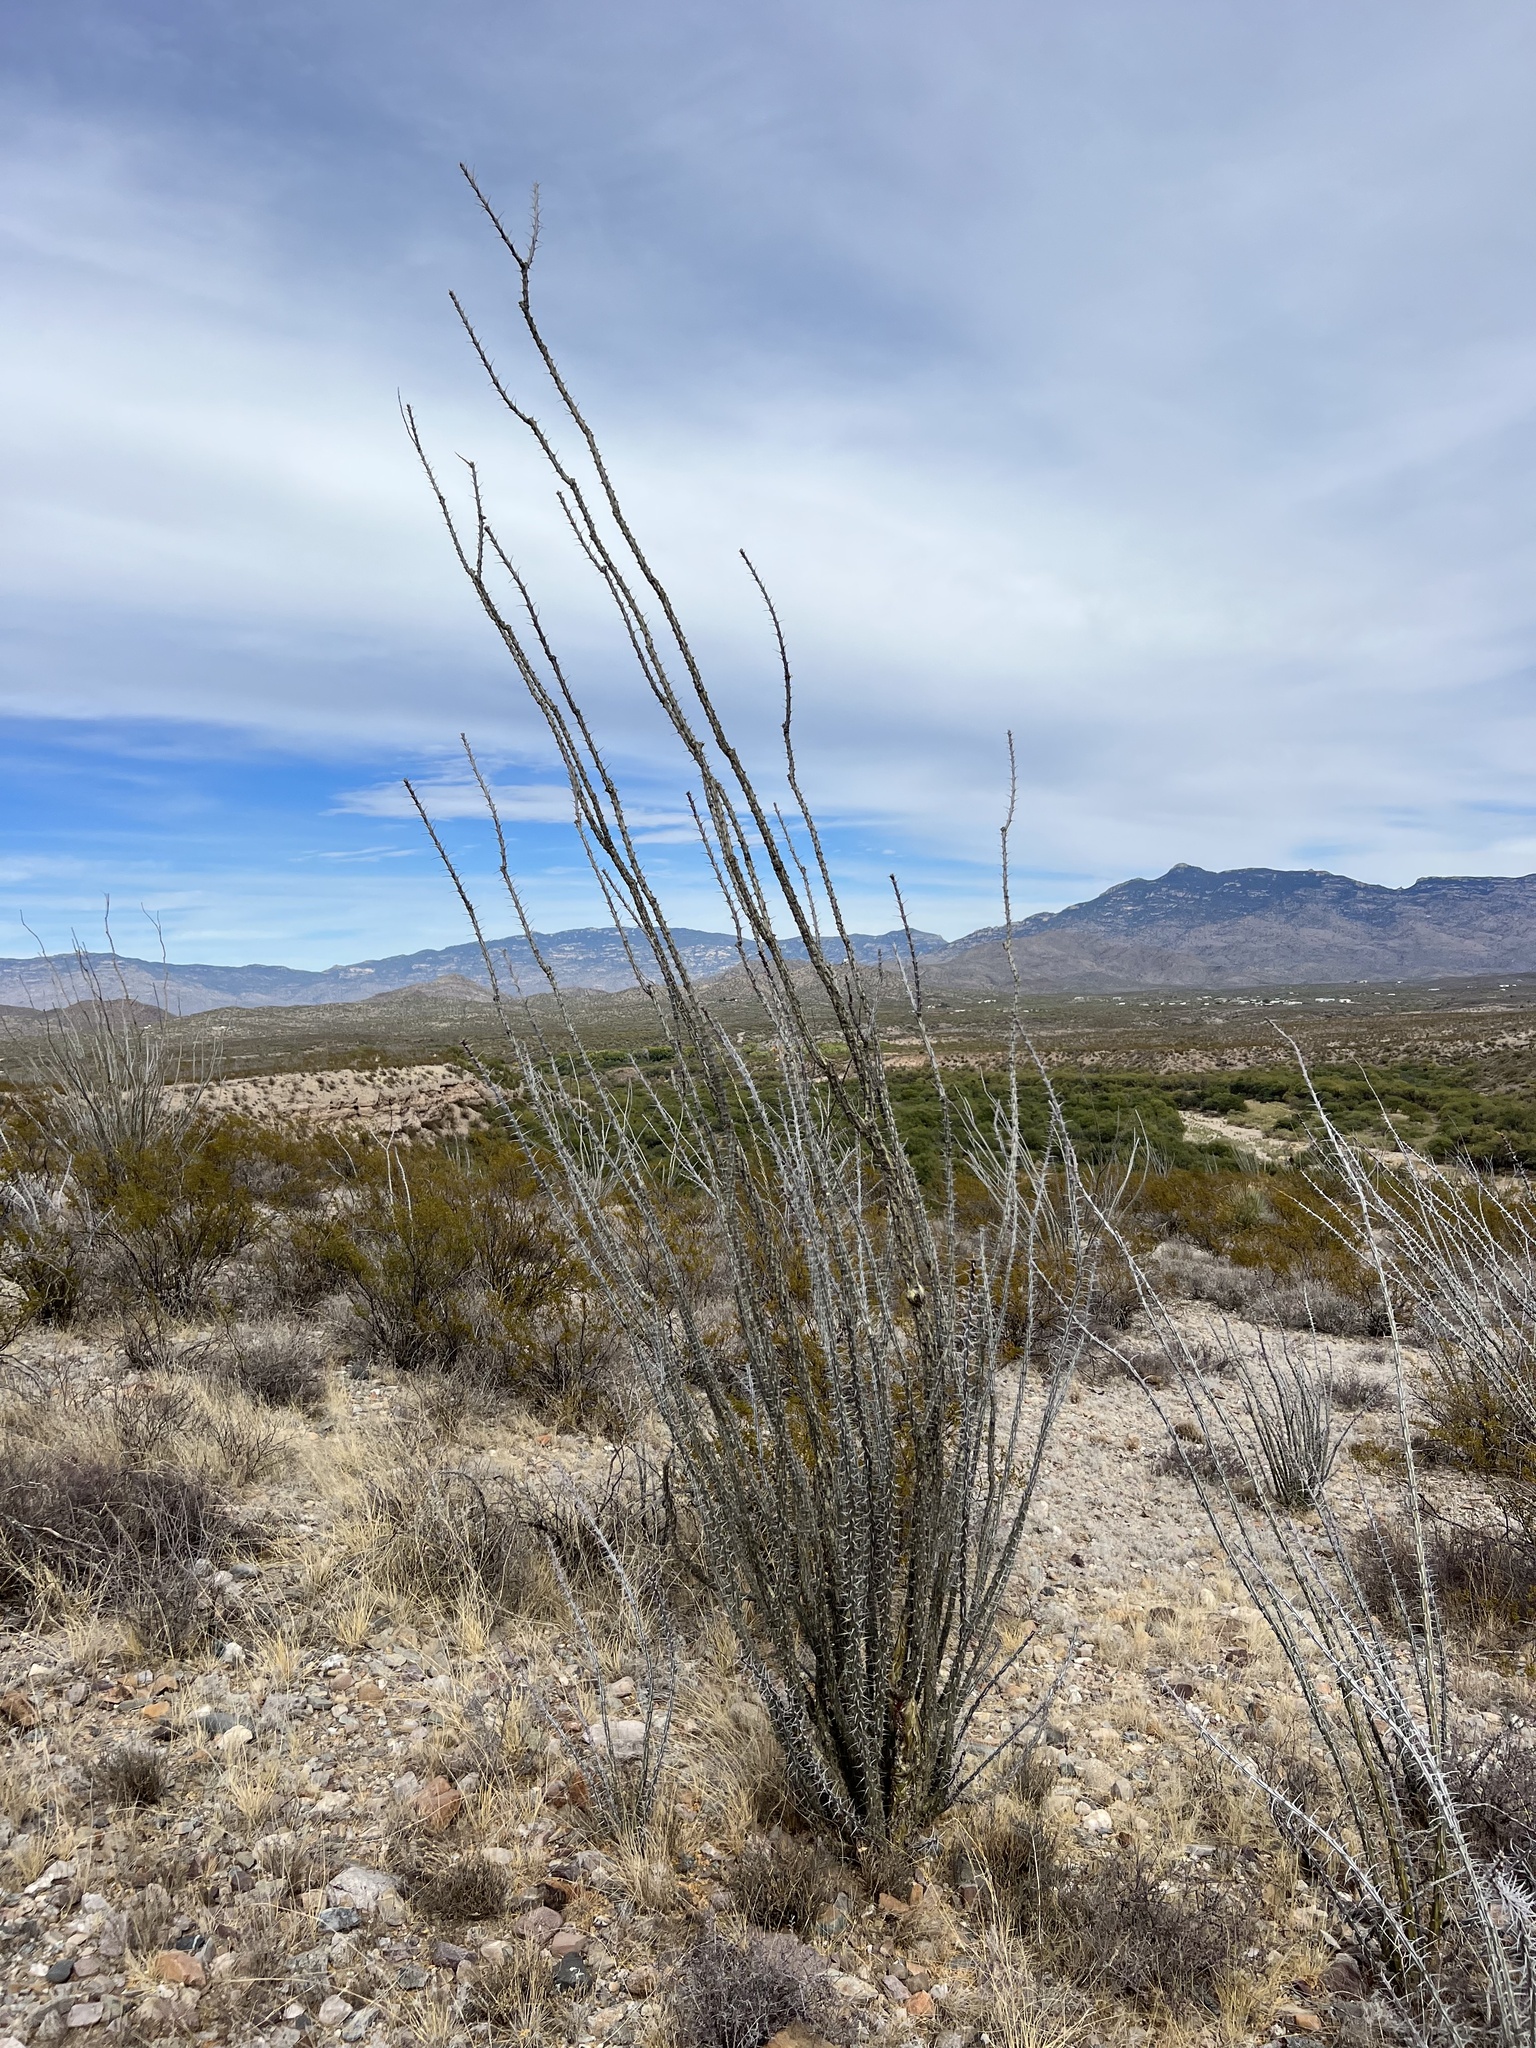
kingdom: Plantae
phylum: Tracheophyta
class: Magnoliopsida
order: Ericales
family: Fouquieriaceae
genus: Fouquieria
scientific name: Fouquieria splendens
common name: Vine-cactus
